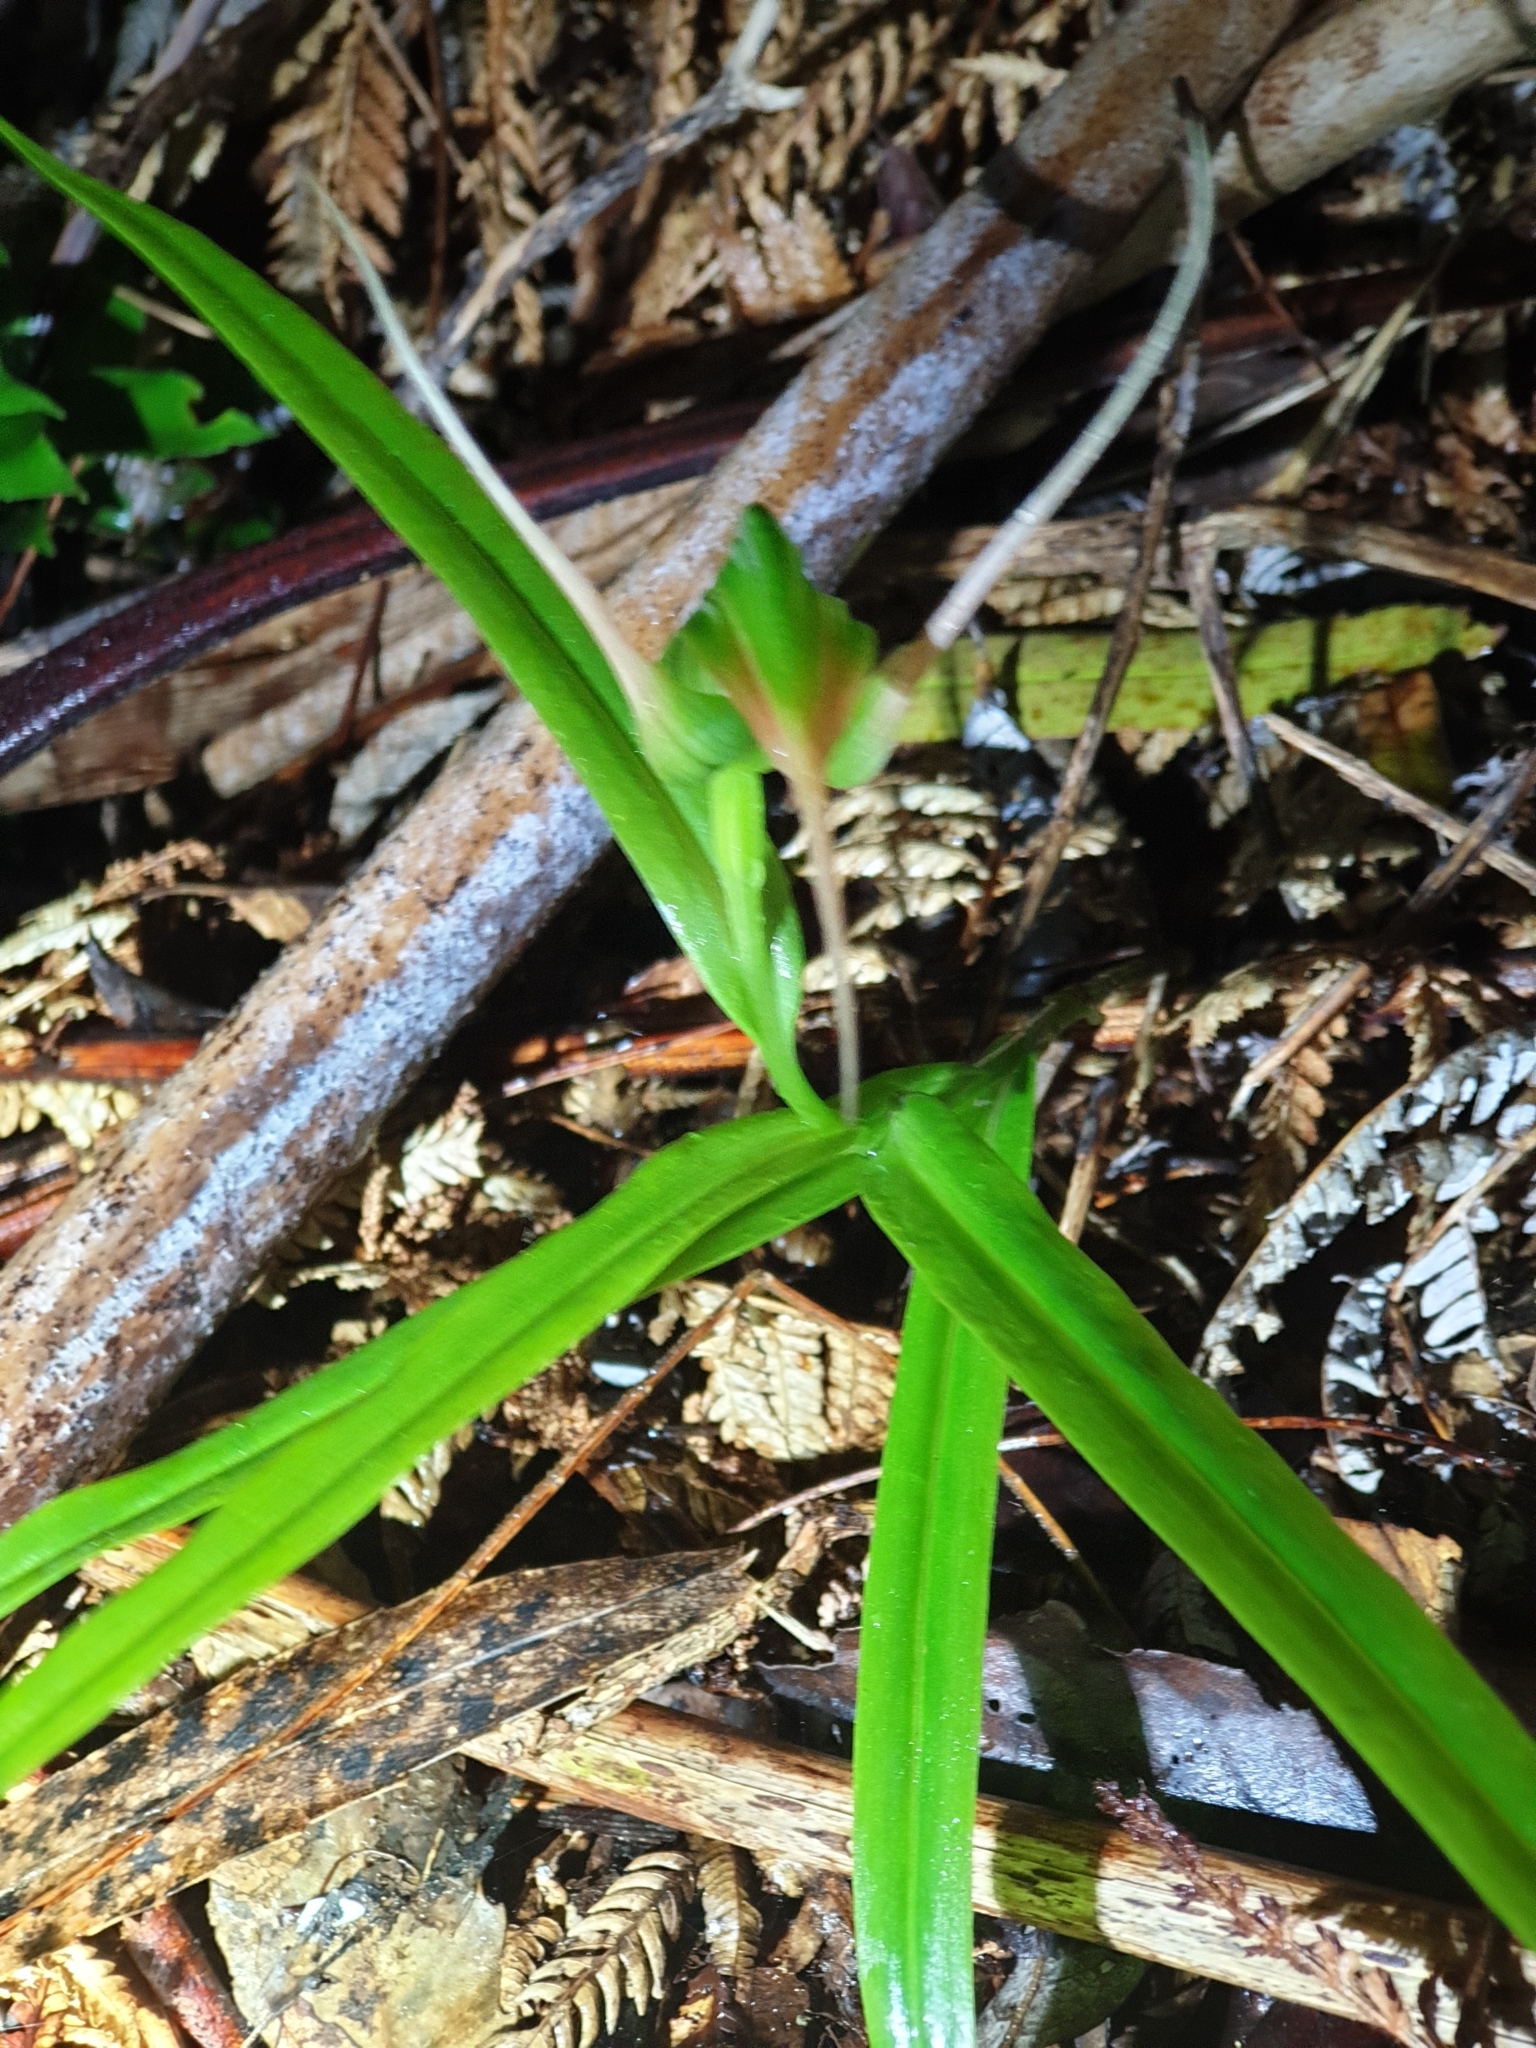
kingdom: Plantae
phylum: Tracheophyta
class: Liliopsida
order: Asparagales
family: Orchidaceae
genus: Pterostylis
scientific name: Pterostylis banksii
